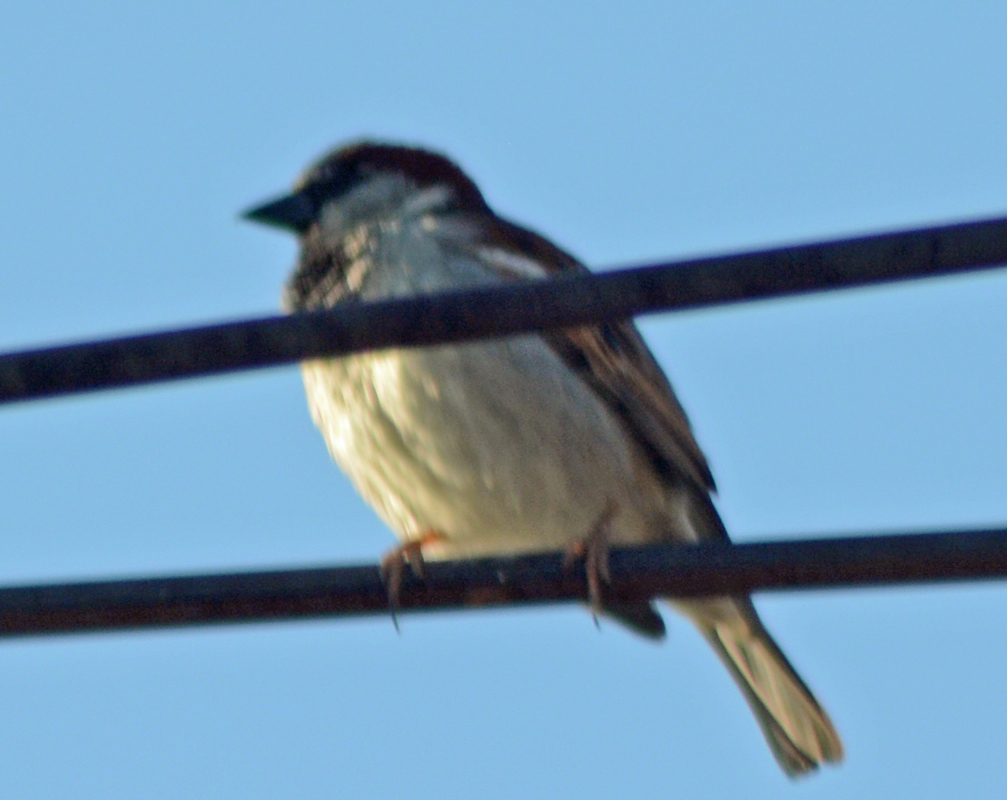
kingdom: Animalia
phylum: Chordata
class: Aves
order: Passeriformes
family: Passeridae
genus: Passer
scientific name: Passer domesticus
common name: House sparrow
